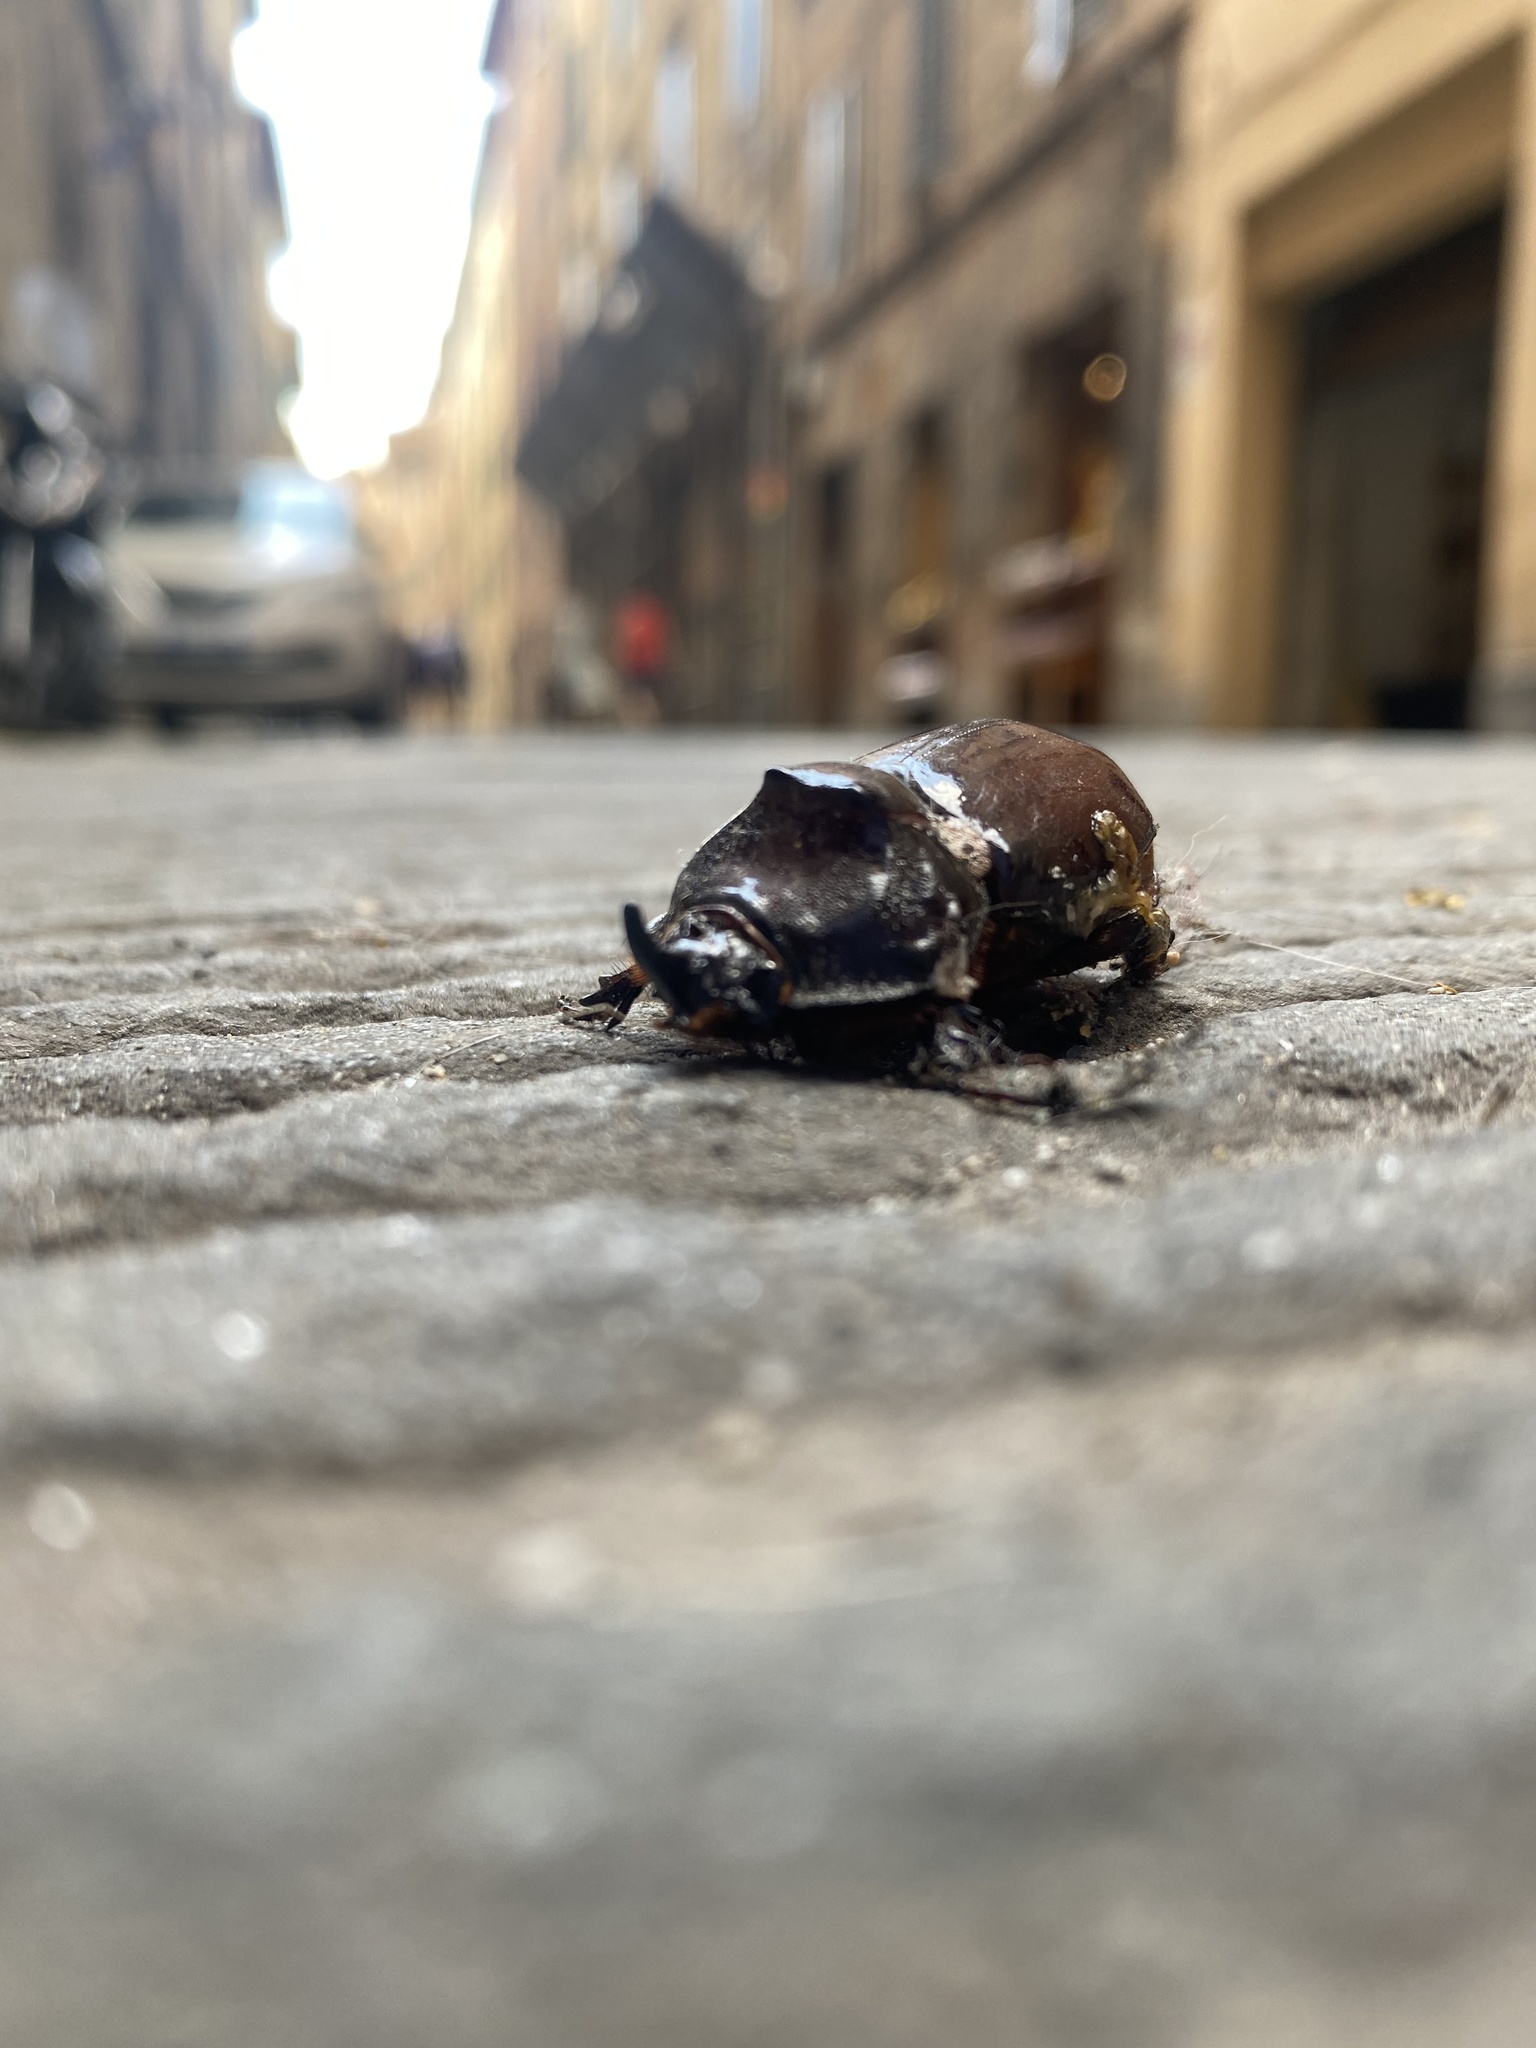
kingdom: Animalia
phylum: Arthropoda
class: Insecta
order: Coleoptera
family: Scarabaeidae
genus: Oryctes
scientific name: Oryctes nasicornis
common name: European rhinoceros beetle
